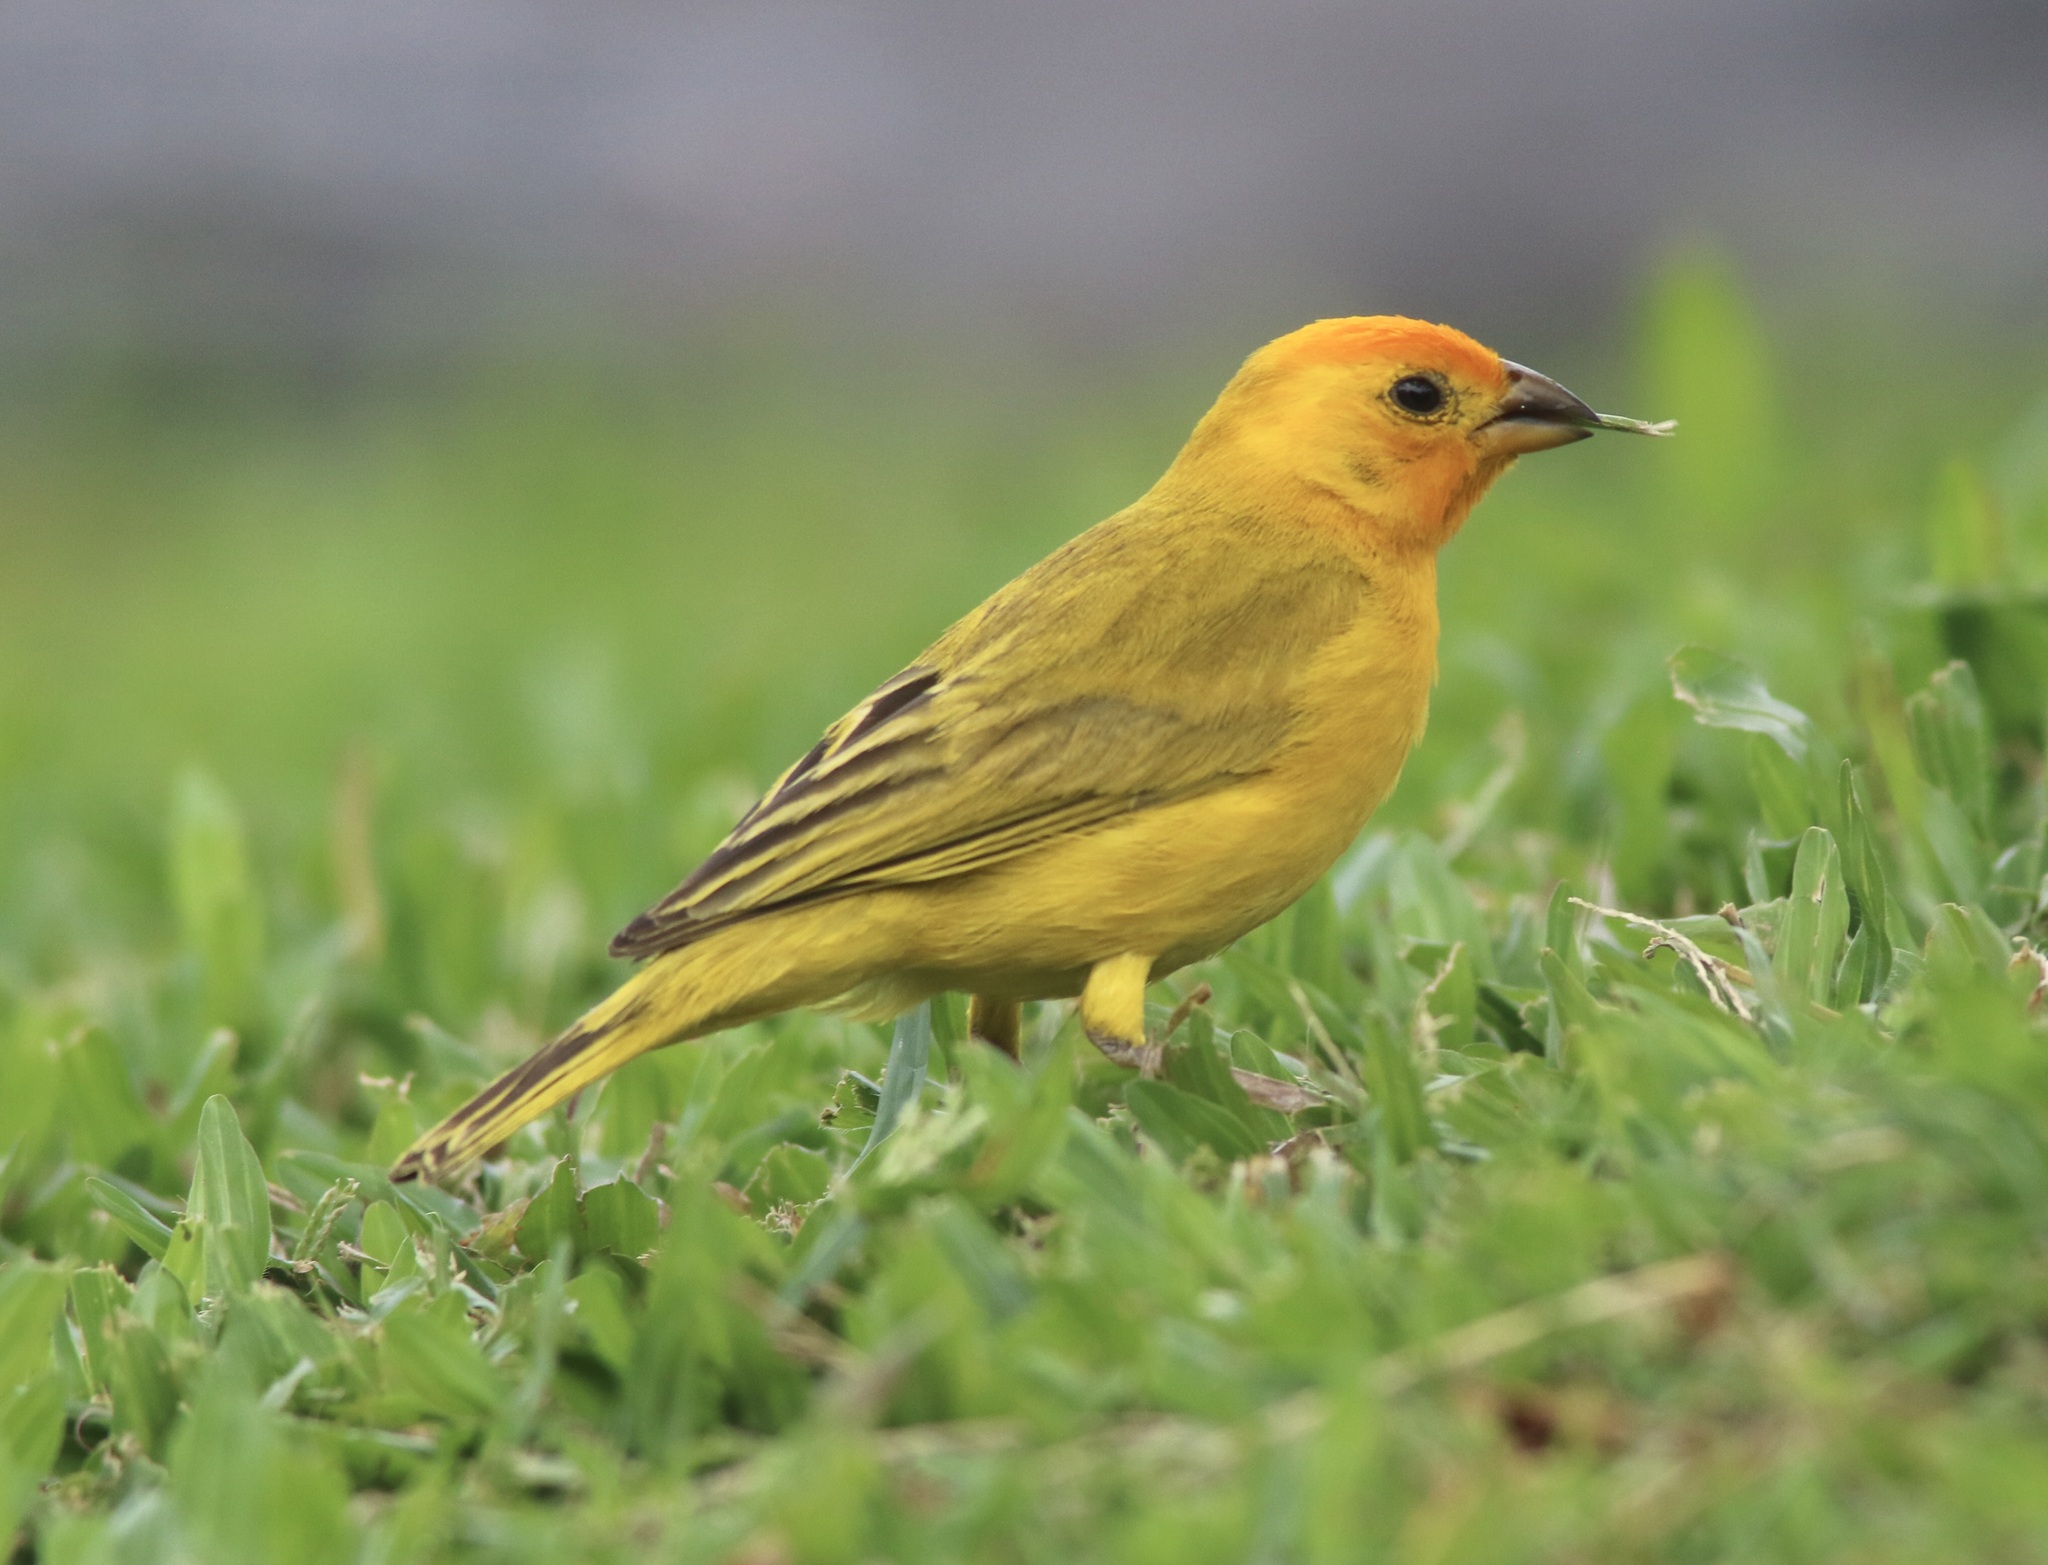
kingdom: Animalia
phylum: Chordata
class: Aves
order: Passeriformes
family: Thraupidae
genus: Sicalis
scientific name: Sicalis flaveola
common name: Saffron finch
